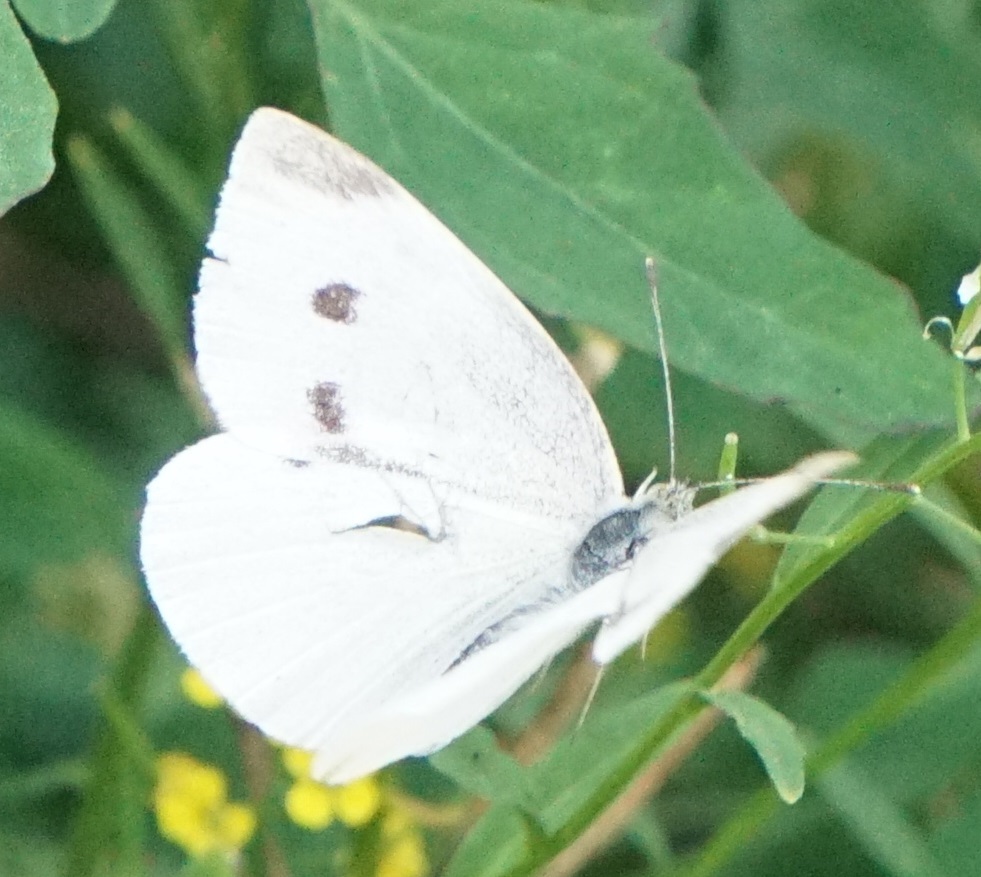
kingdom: Animalia
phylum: Arthropoda
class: Insecta
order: Lepidoptera
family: Pieridae
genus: Pieris
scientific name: Pieris rapae
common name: Small white
